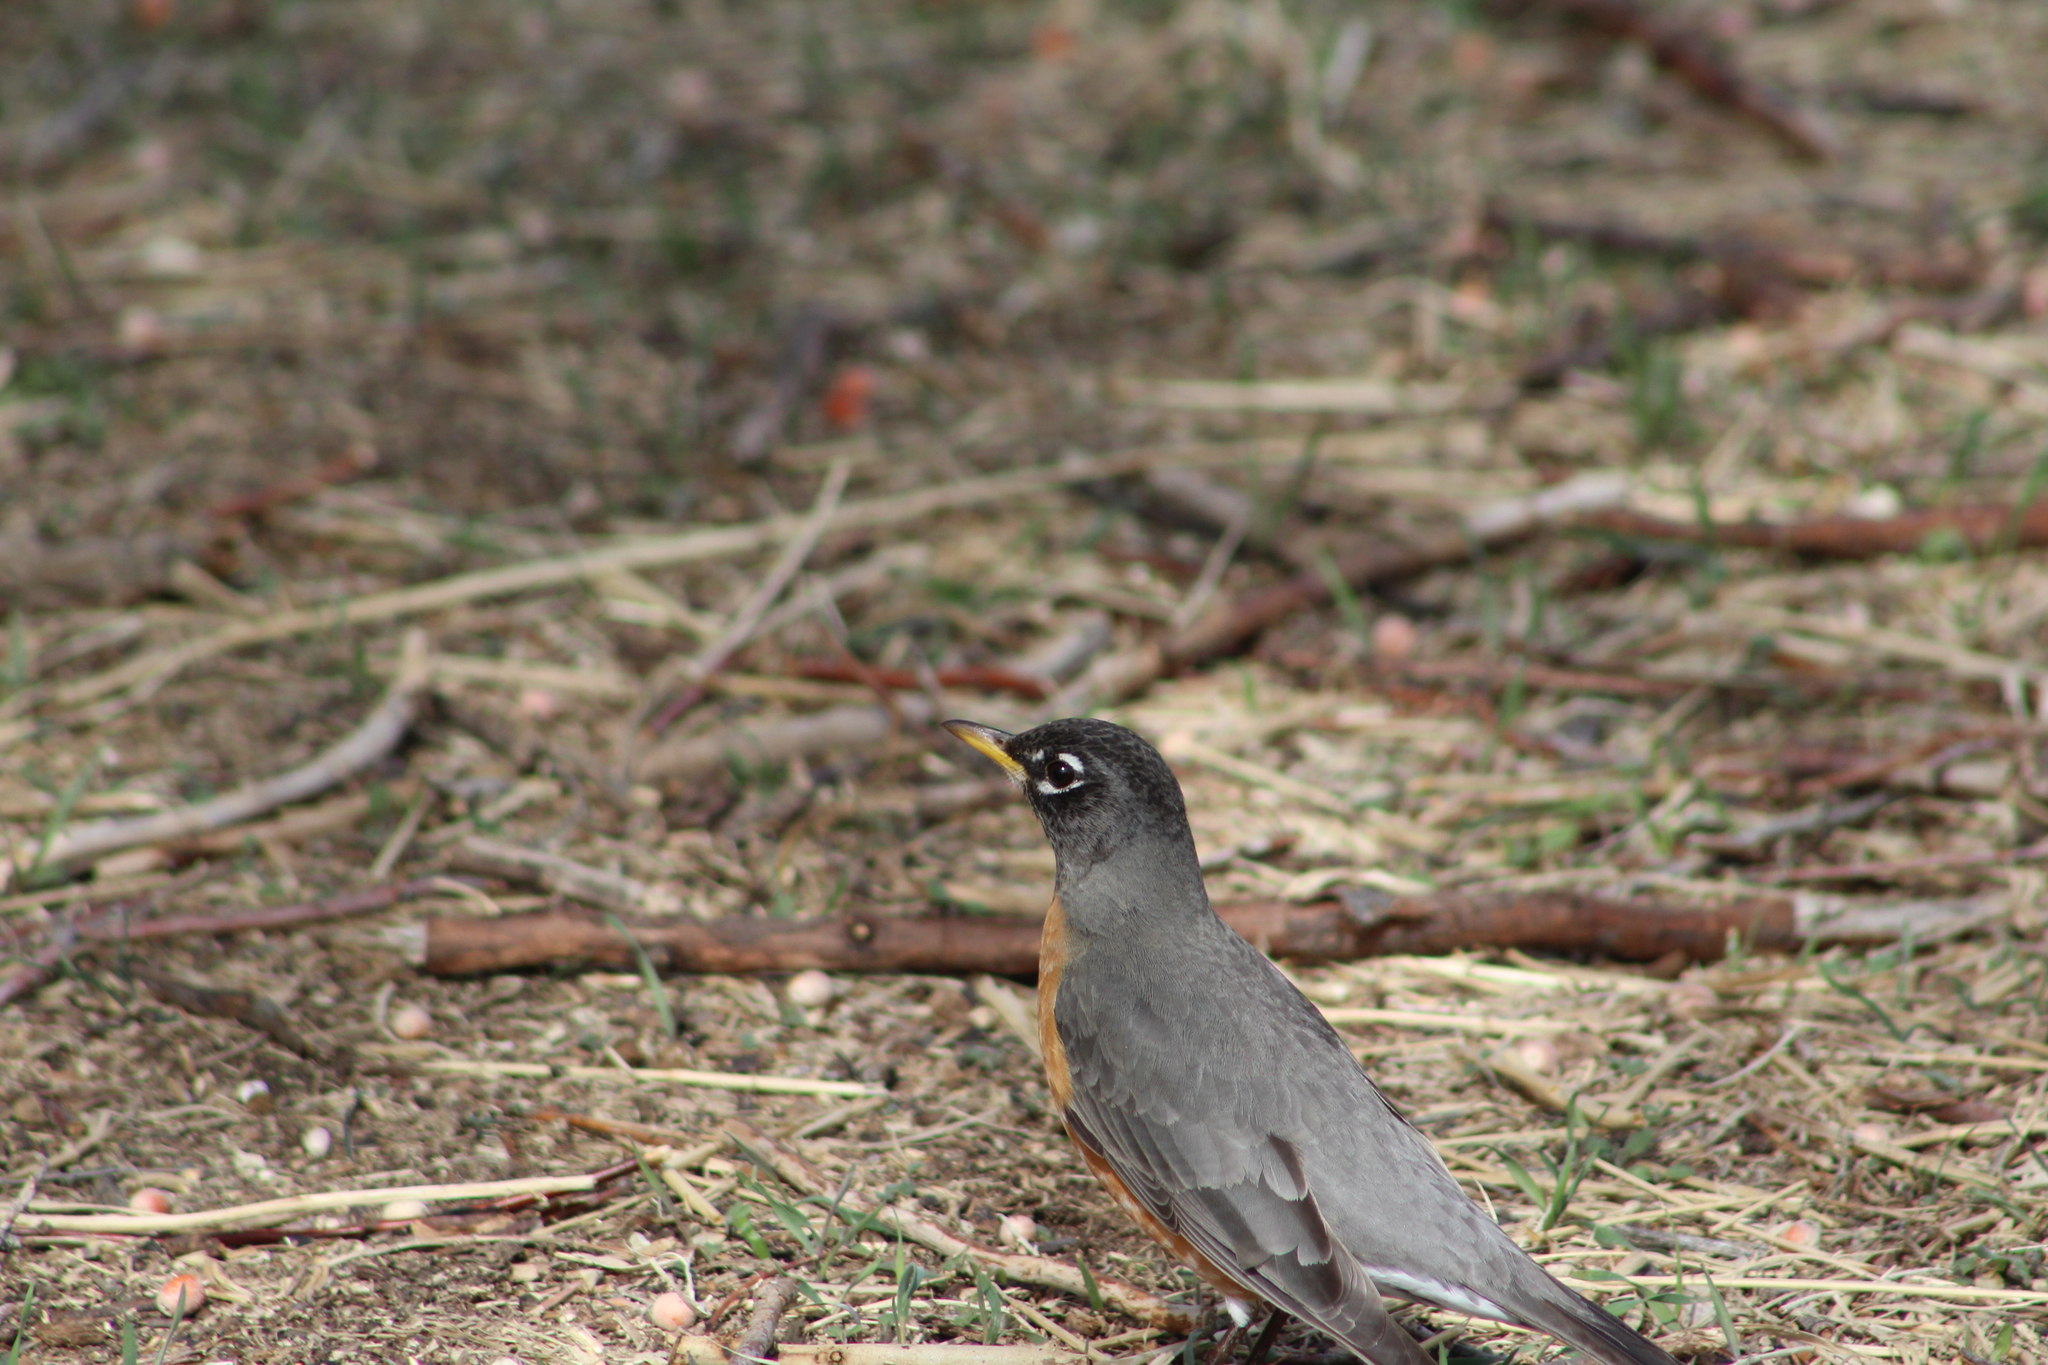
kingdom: Animalia
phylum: Chordata
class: Aves
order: Passeriformes
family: Turdidae
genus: Turdus
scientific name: Turdus migratorius
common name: American robin
